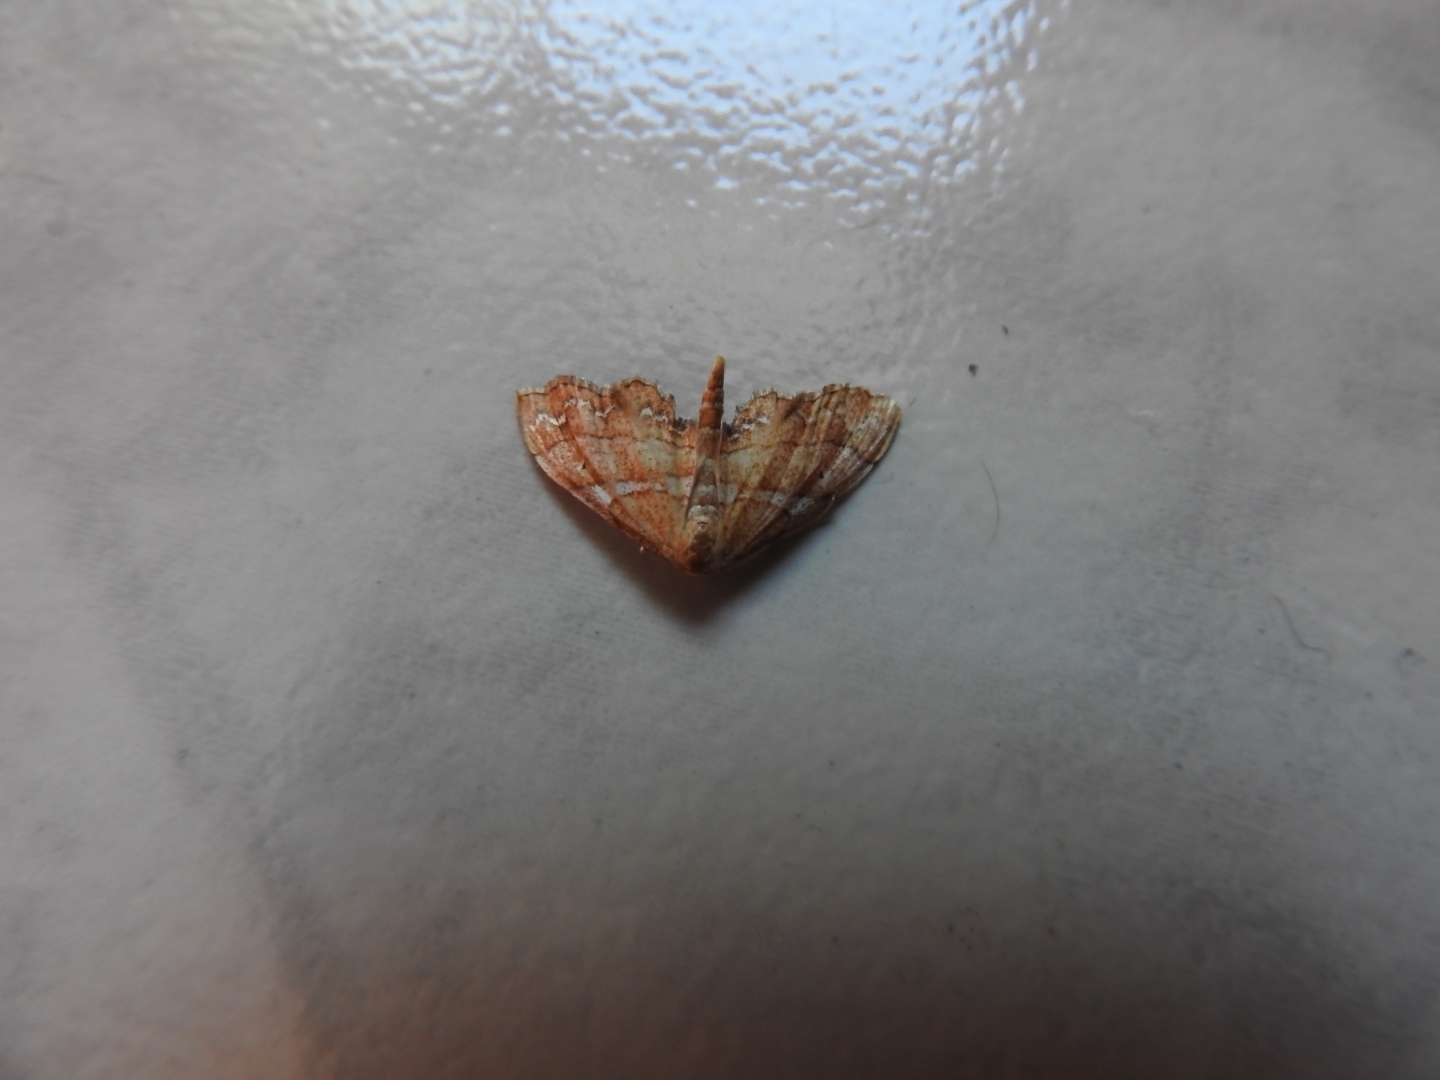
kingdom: Animalia
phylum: Arthropoda
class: Insecta
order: Lepidoptera
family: Geometridae
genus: Odontoptila
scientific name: Odontoptila obrimo
